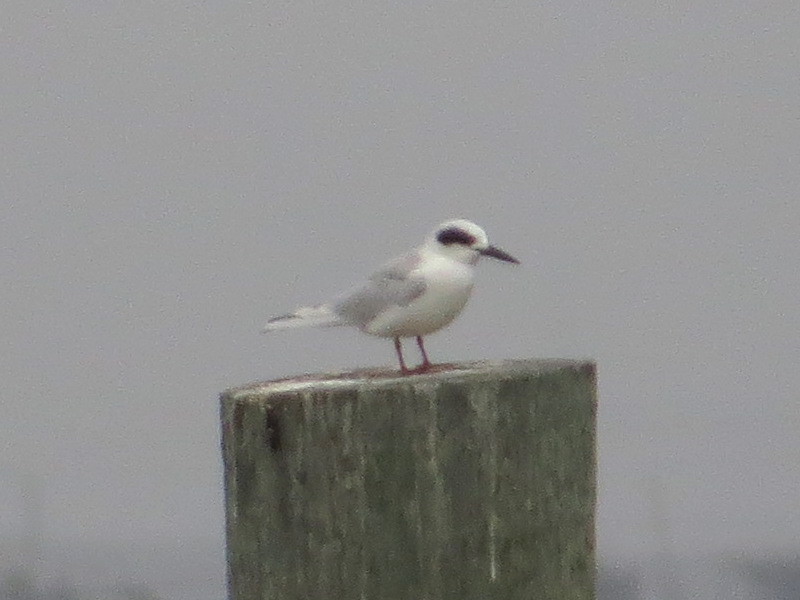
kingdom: Animalia
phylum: Chordata
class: Aves
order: Charadriiformes
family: Laridae
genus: Sterna
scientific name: Sterna forsteri
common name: Forster's tern
